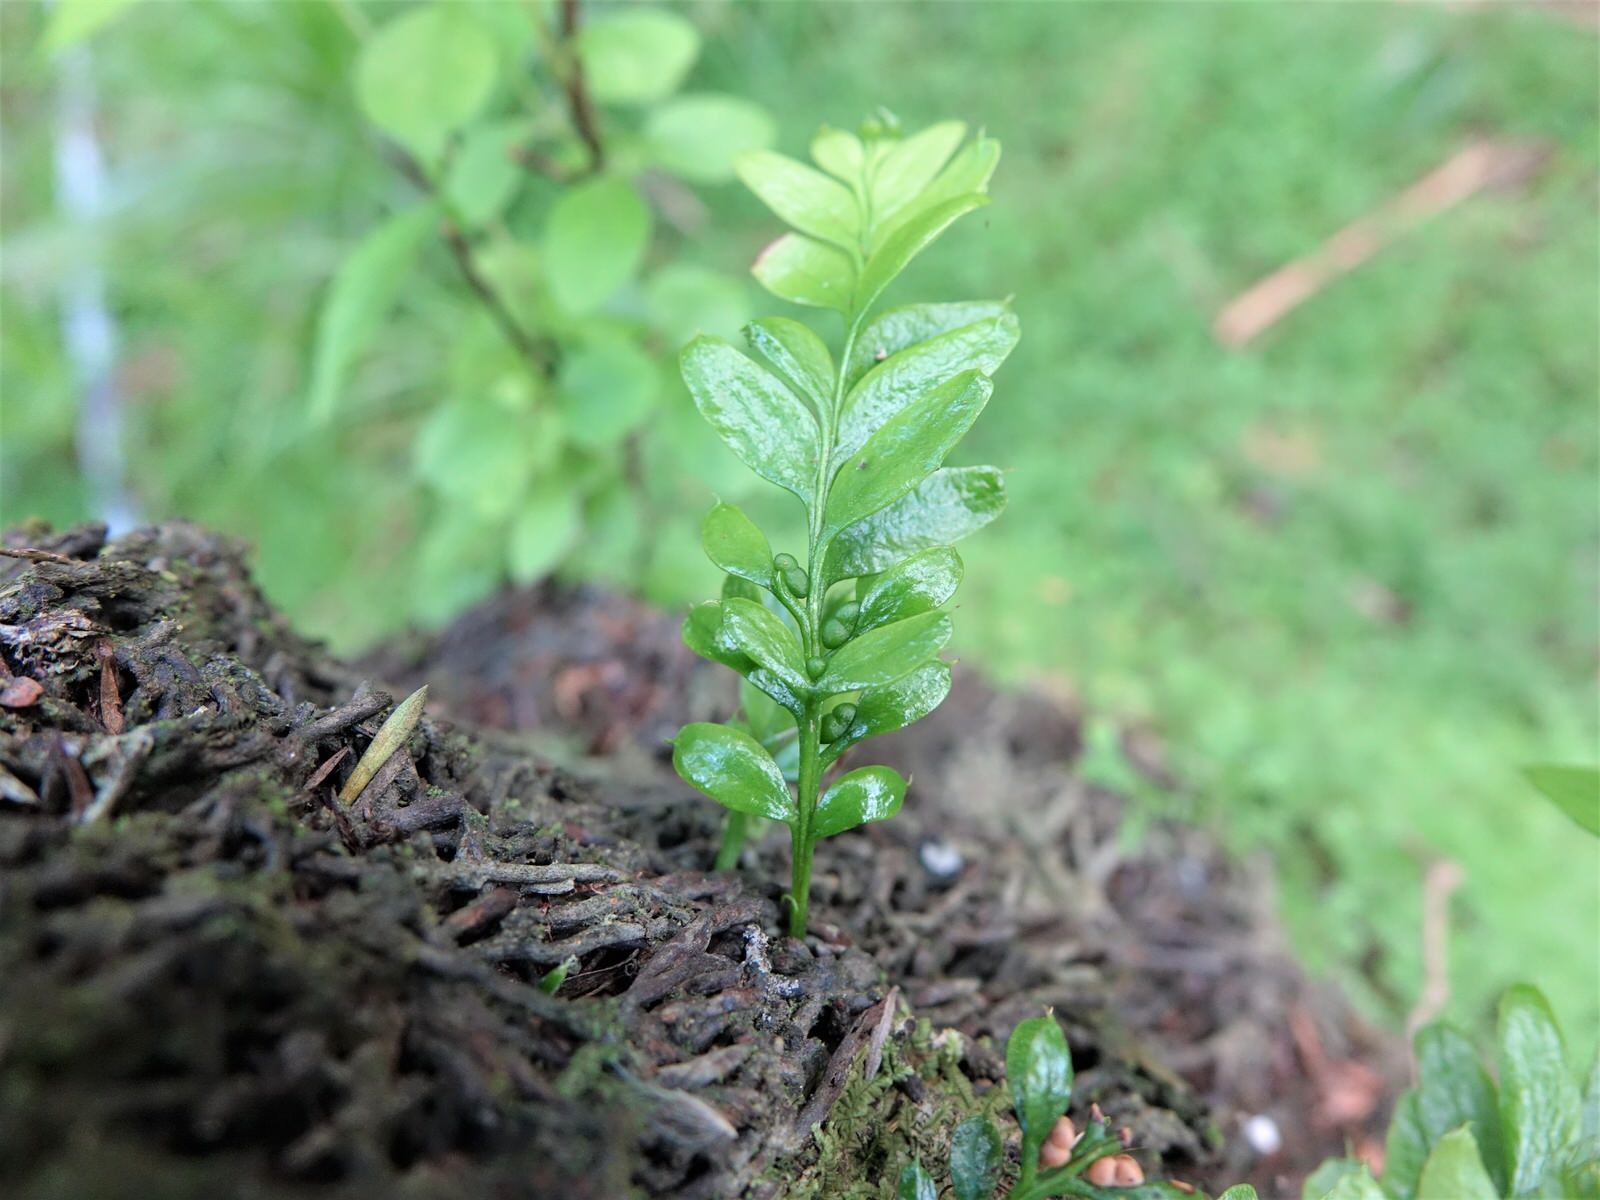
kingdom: Plantae
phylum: Tracheophyta
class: Polypodiopsida
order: Psilotales
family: Psilotaceae
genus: Tmesipteris
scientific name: Tmesipteris lanceolata
